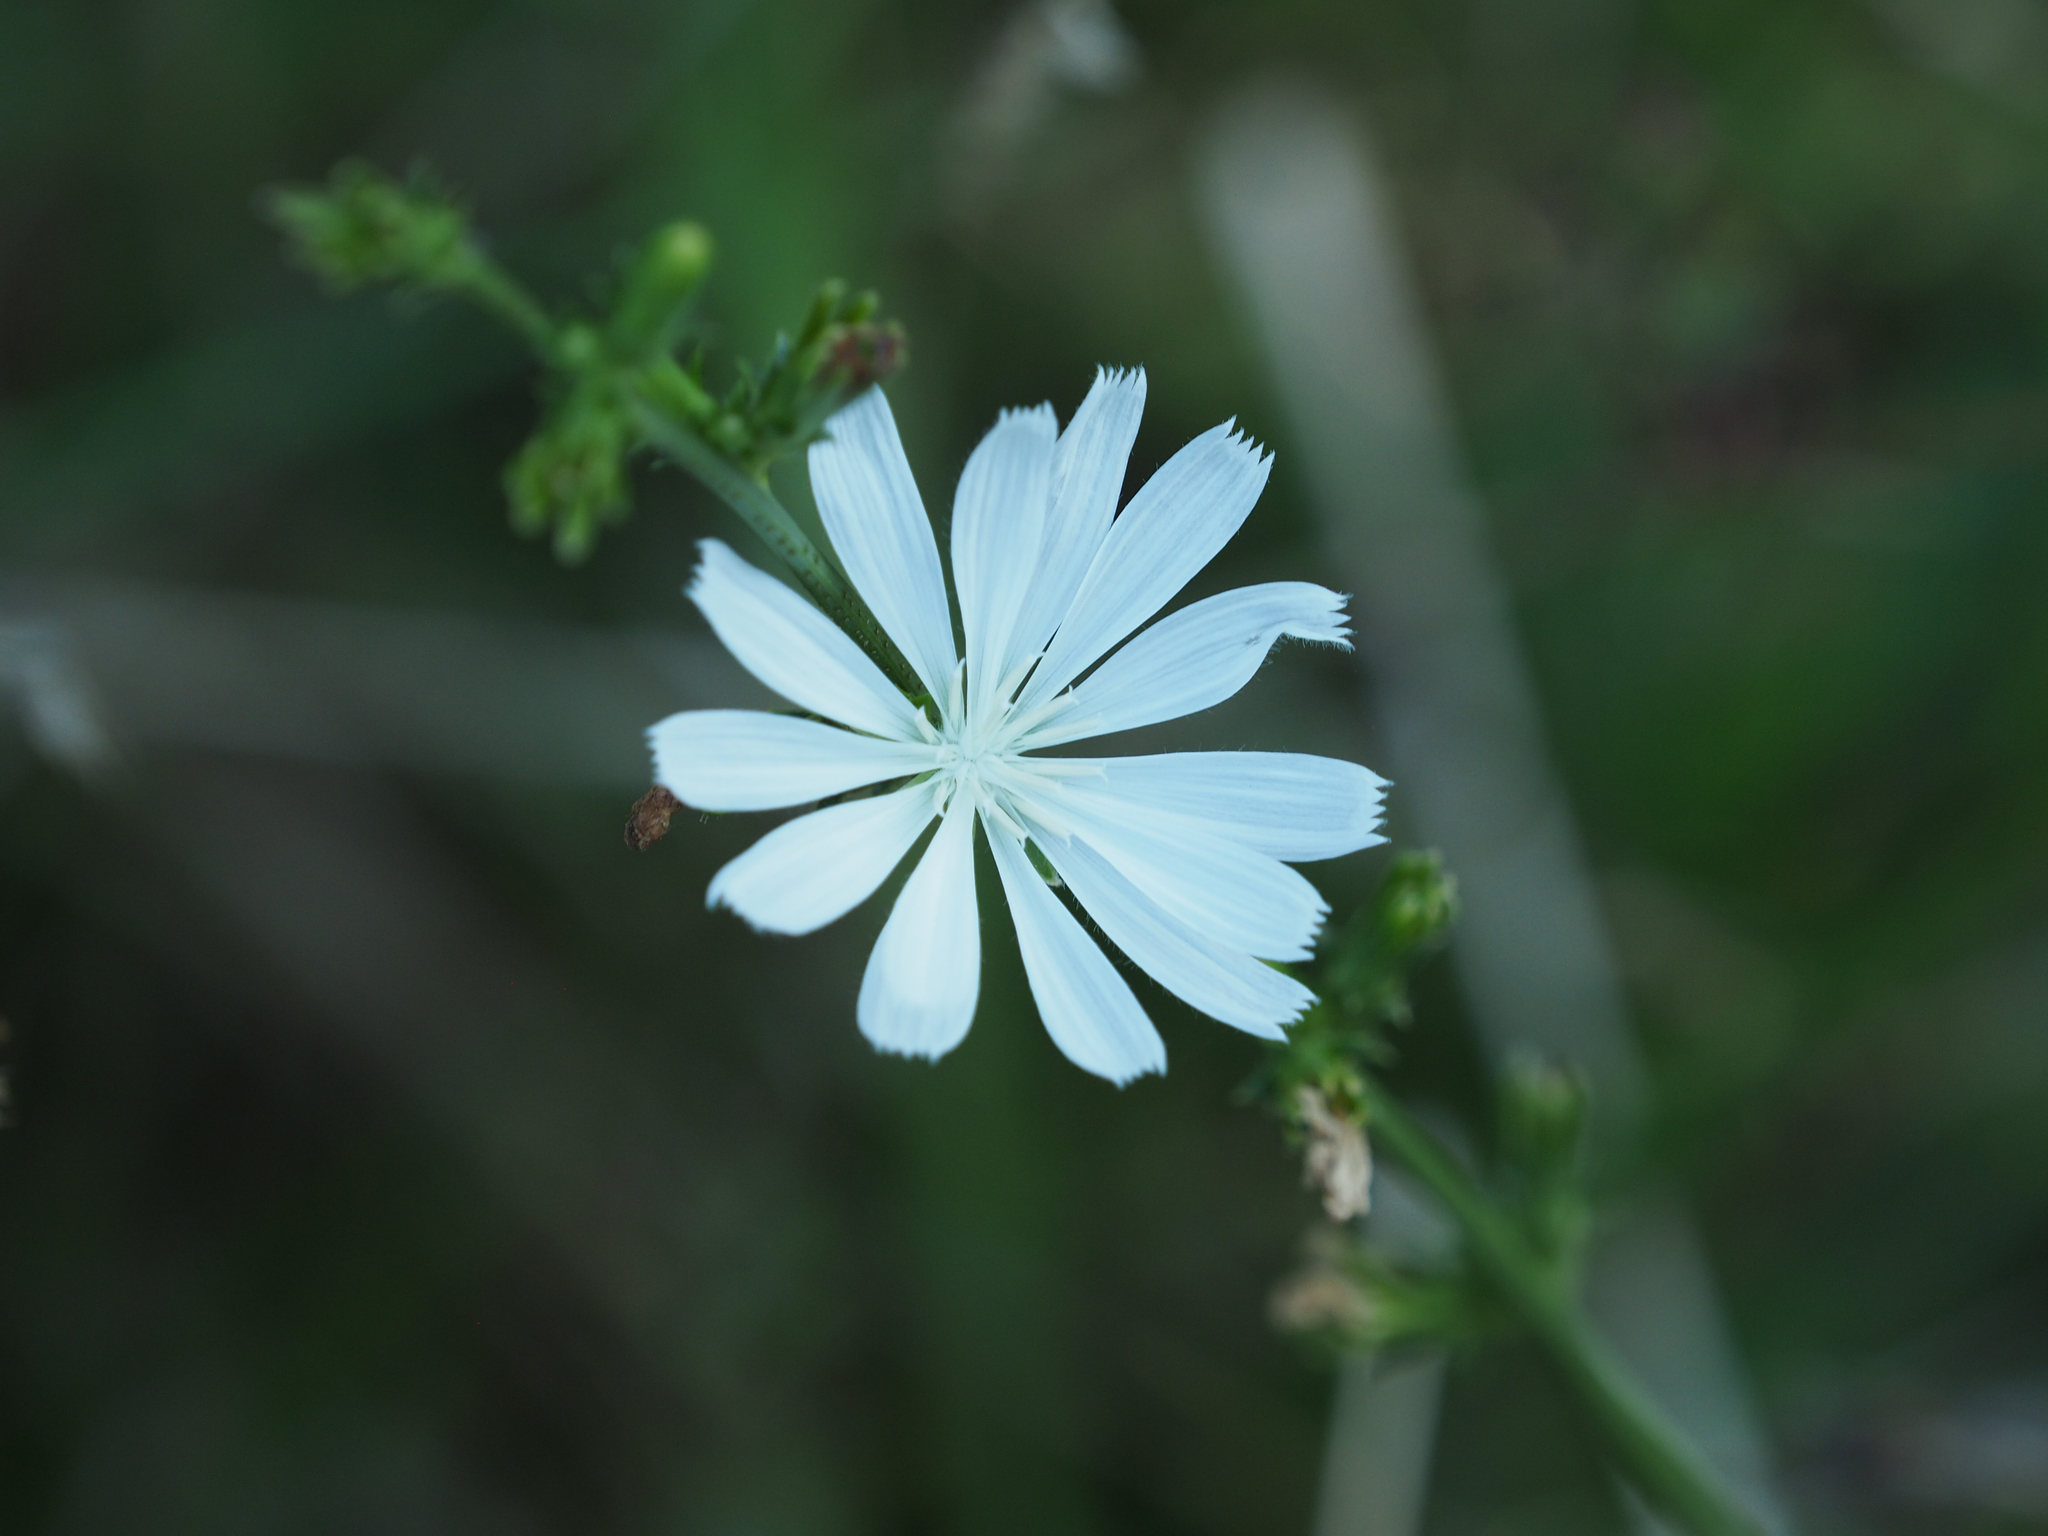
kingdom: Plantae
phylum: Tracheophyta
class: Magnoliopsida
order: Asterales
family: Asteraceae
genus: Cichorium
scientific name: Cichorium intybus
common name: Chicory
